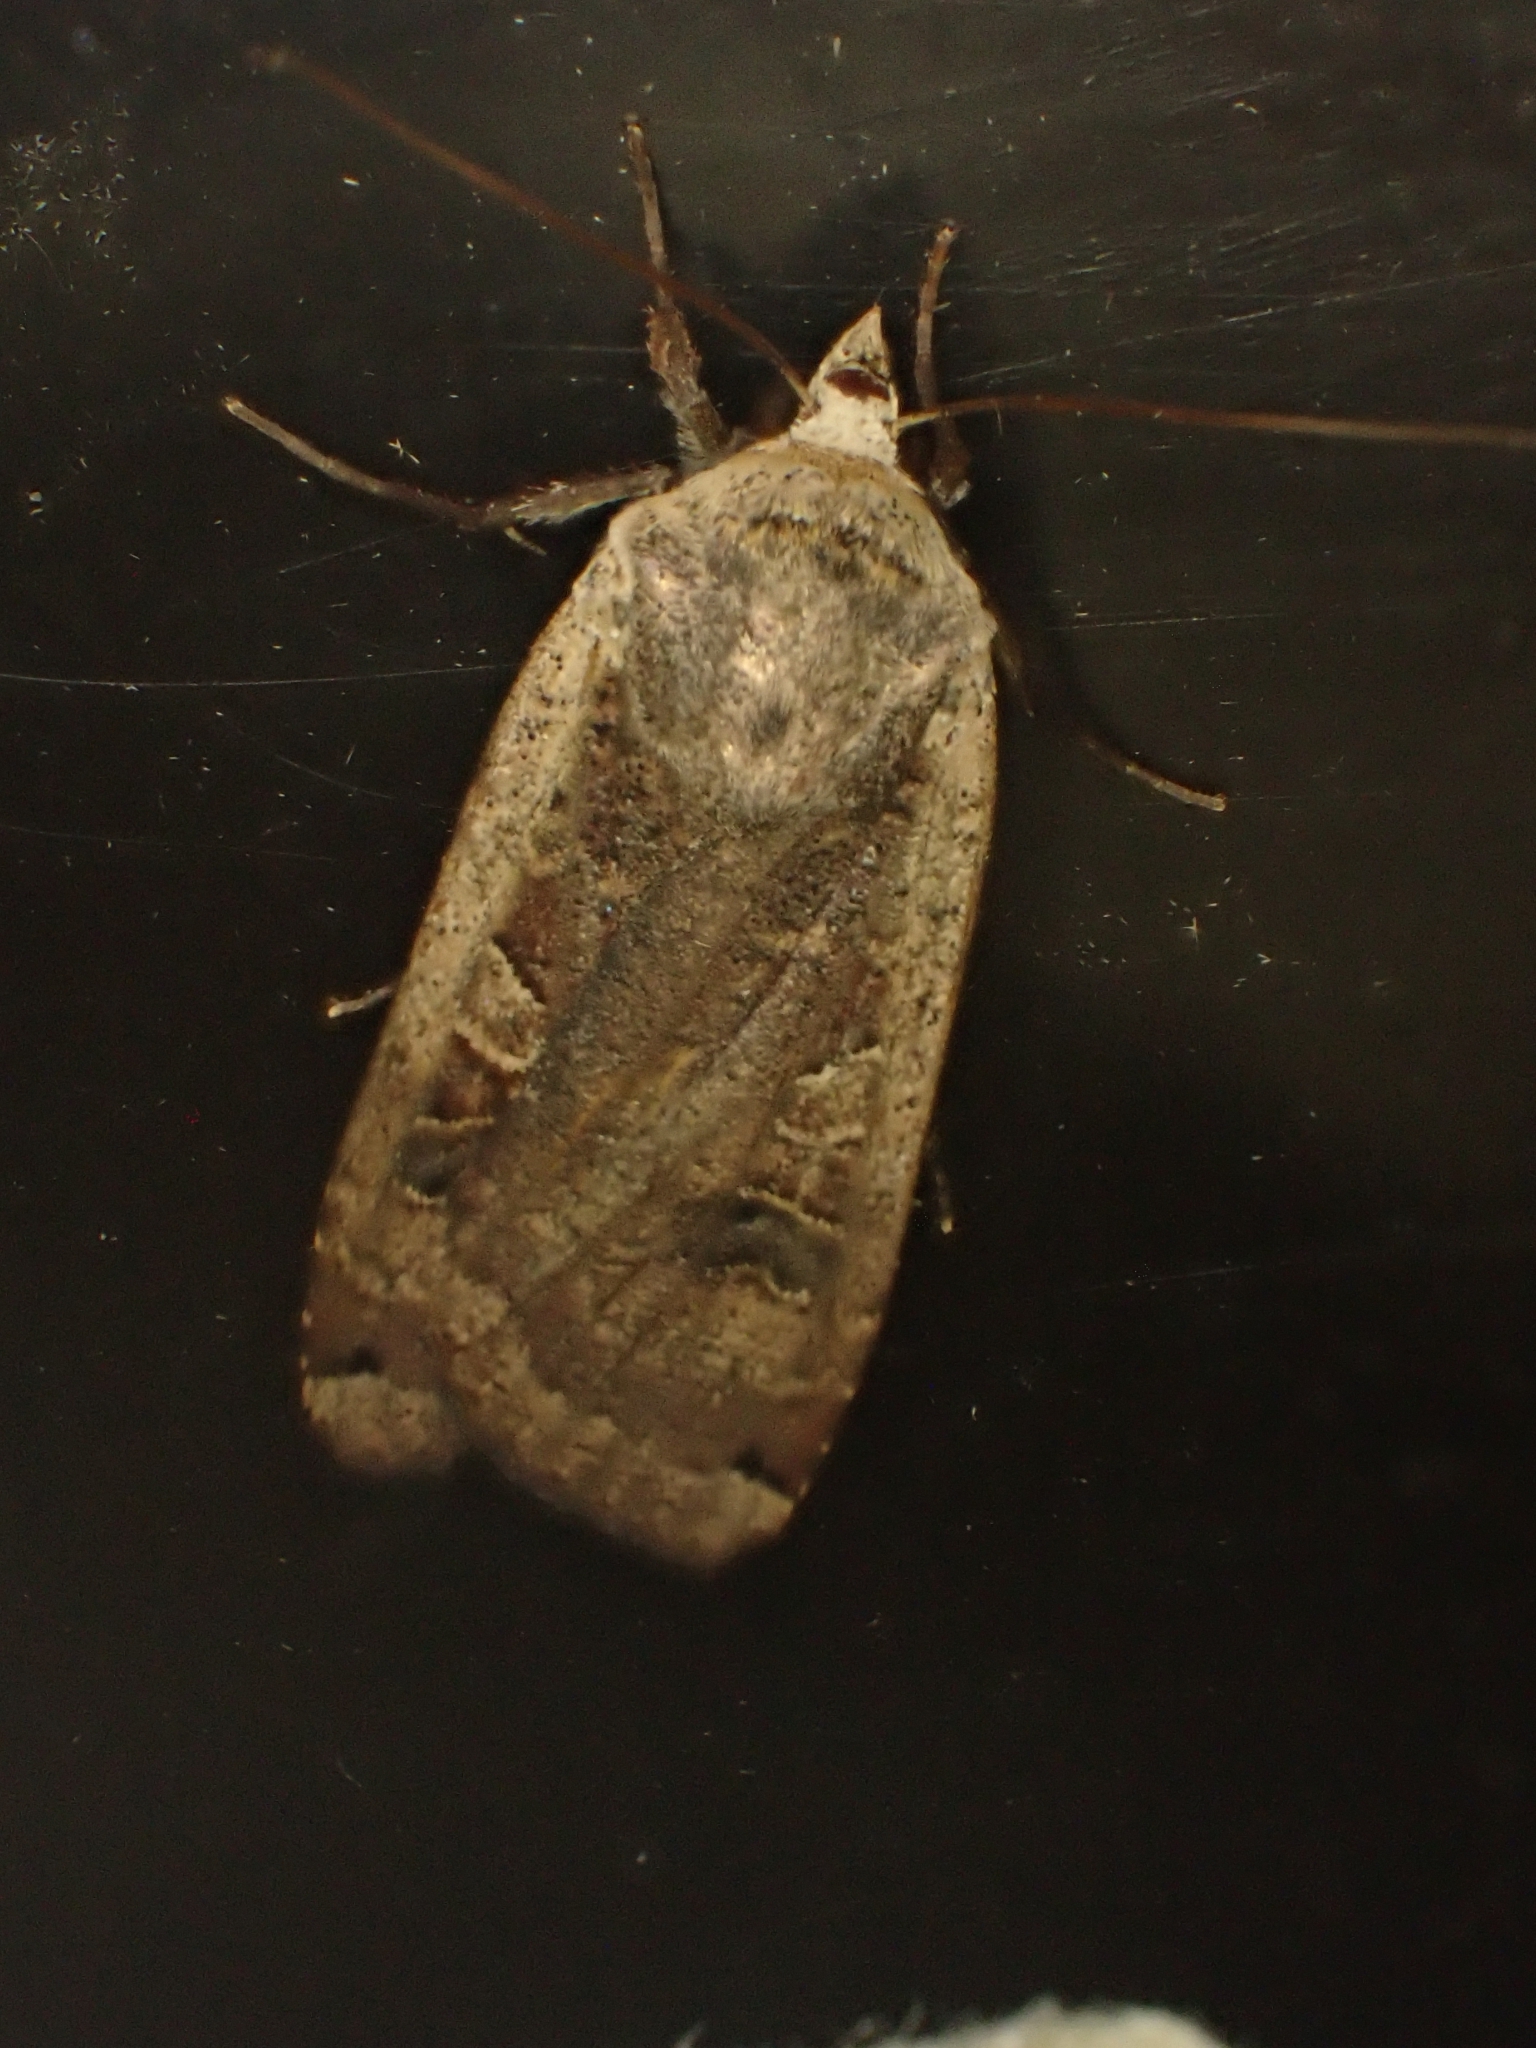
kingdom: Animalia
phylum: Arthropoda
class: Insecta
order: Lepidoptera
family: Noctuidae
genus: Noctua
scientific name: Noctua pronuba
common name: Large yellow underwing
